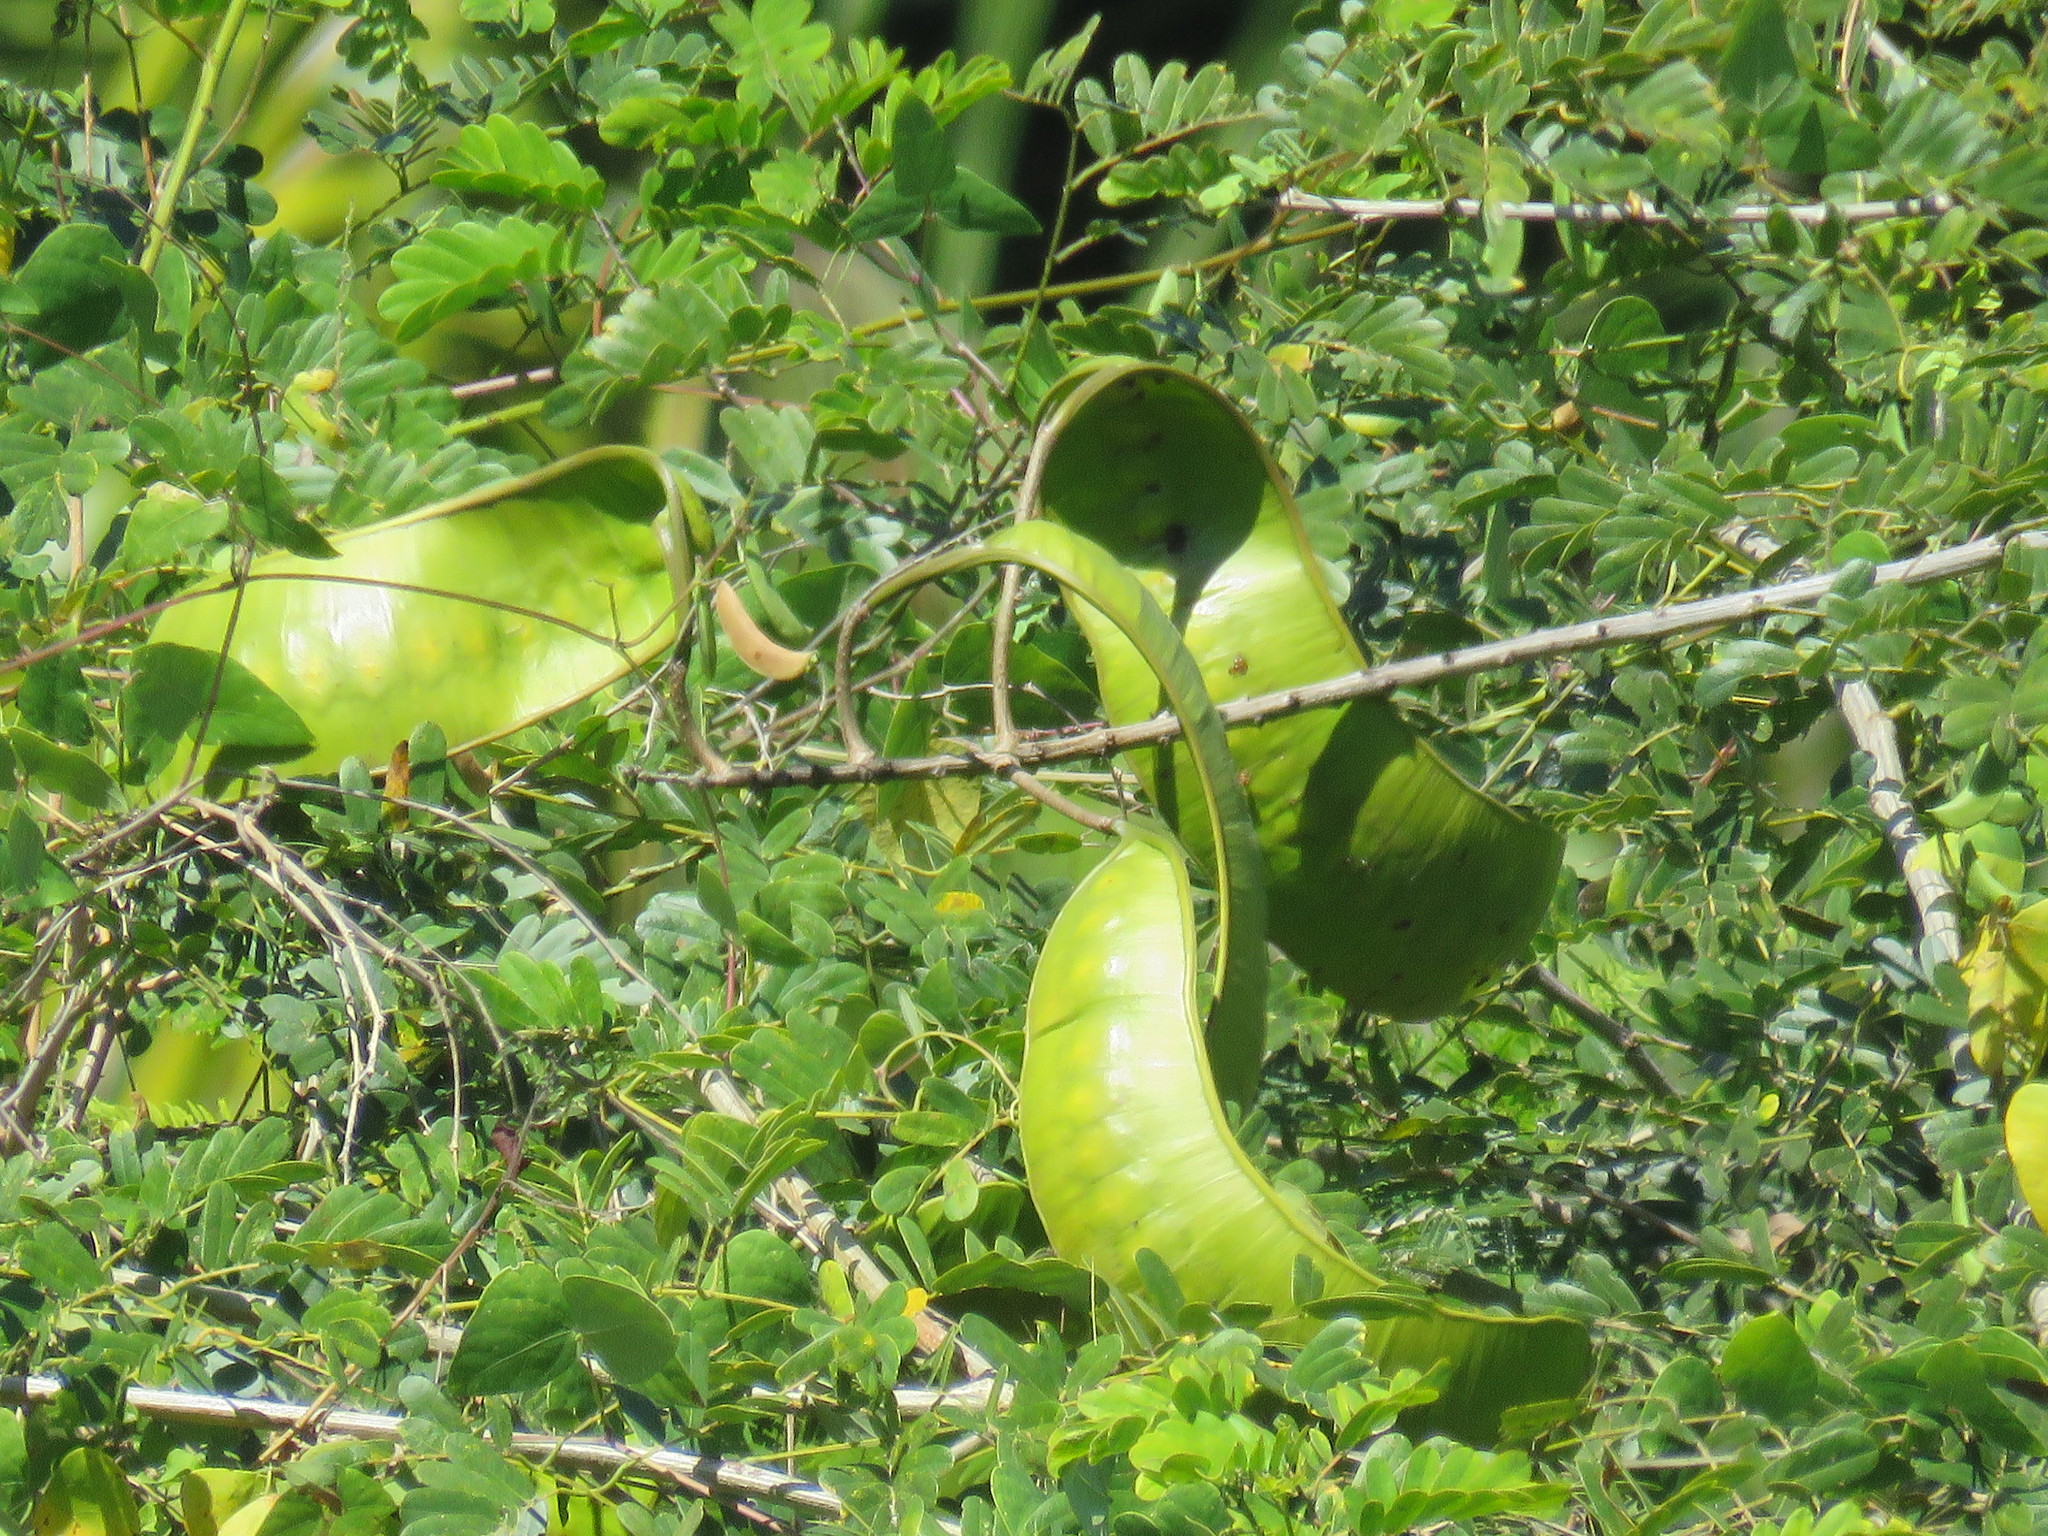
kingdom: Plantae
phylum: Tracheophyta
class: Magnoliopsida
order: Fabales
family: Fabaceae
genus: Entada
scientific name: Entada polystachya
